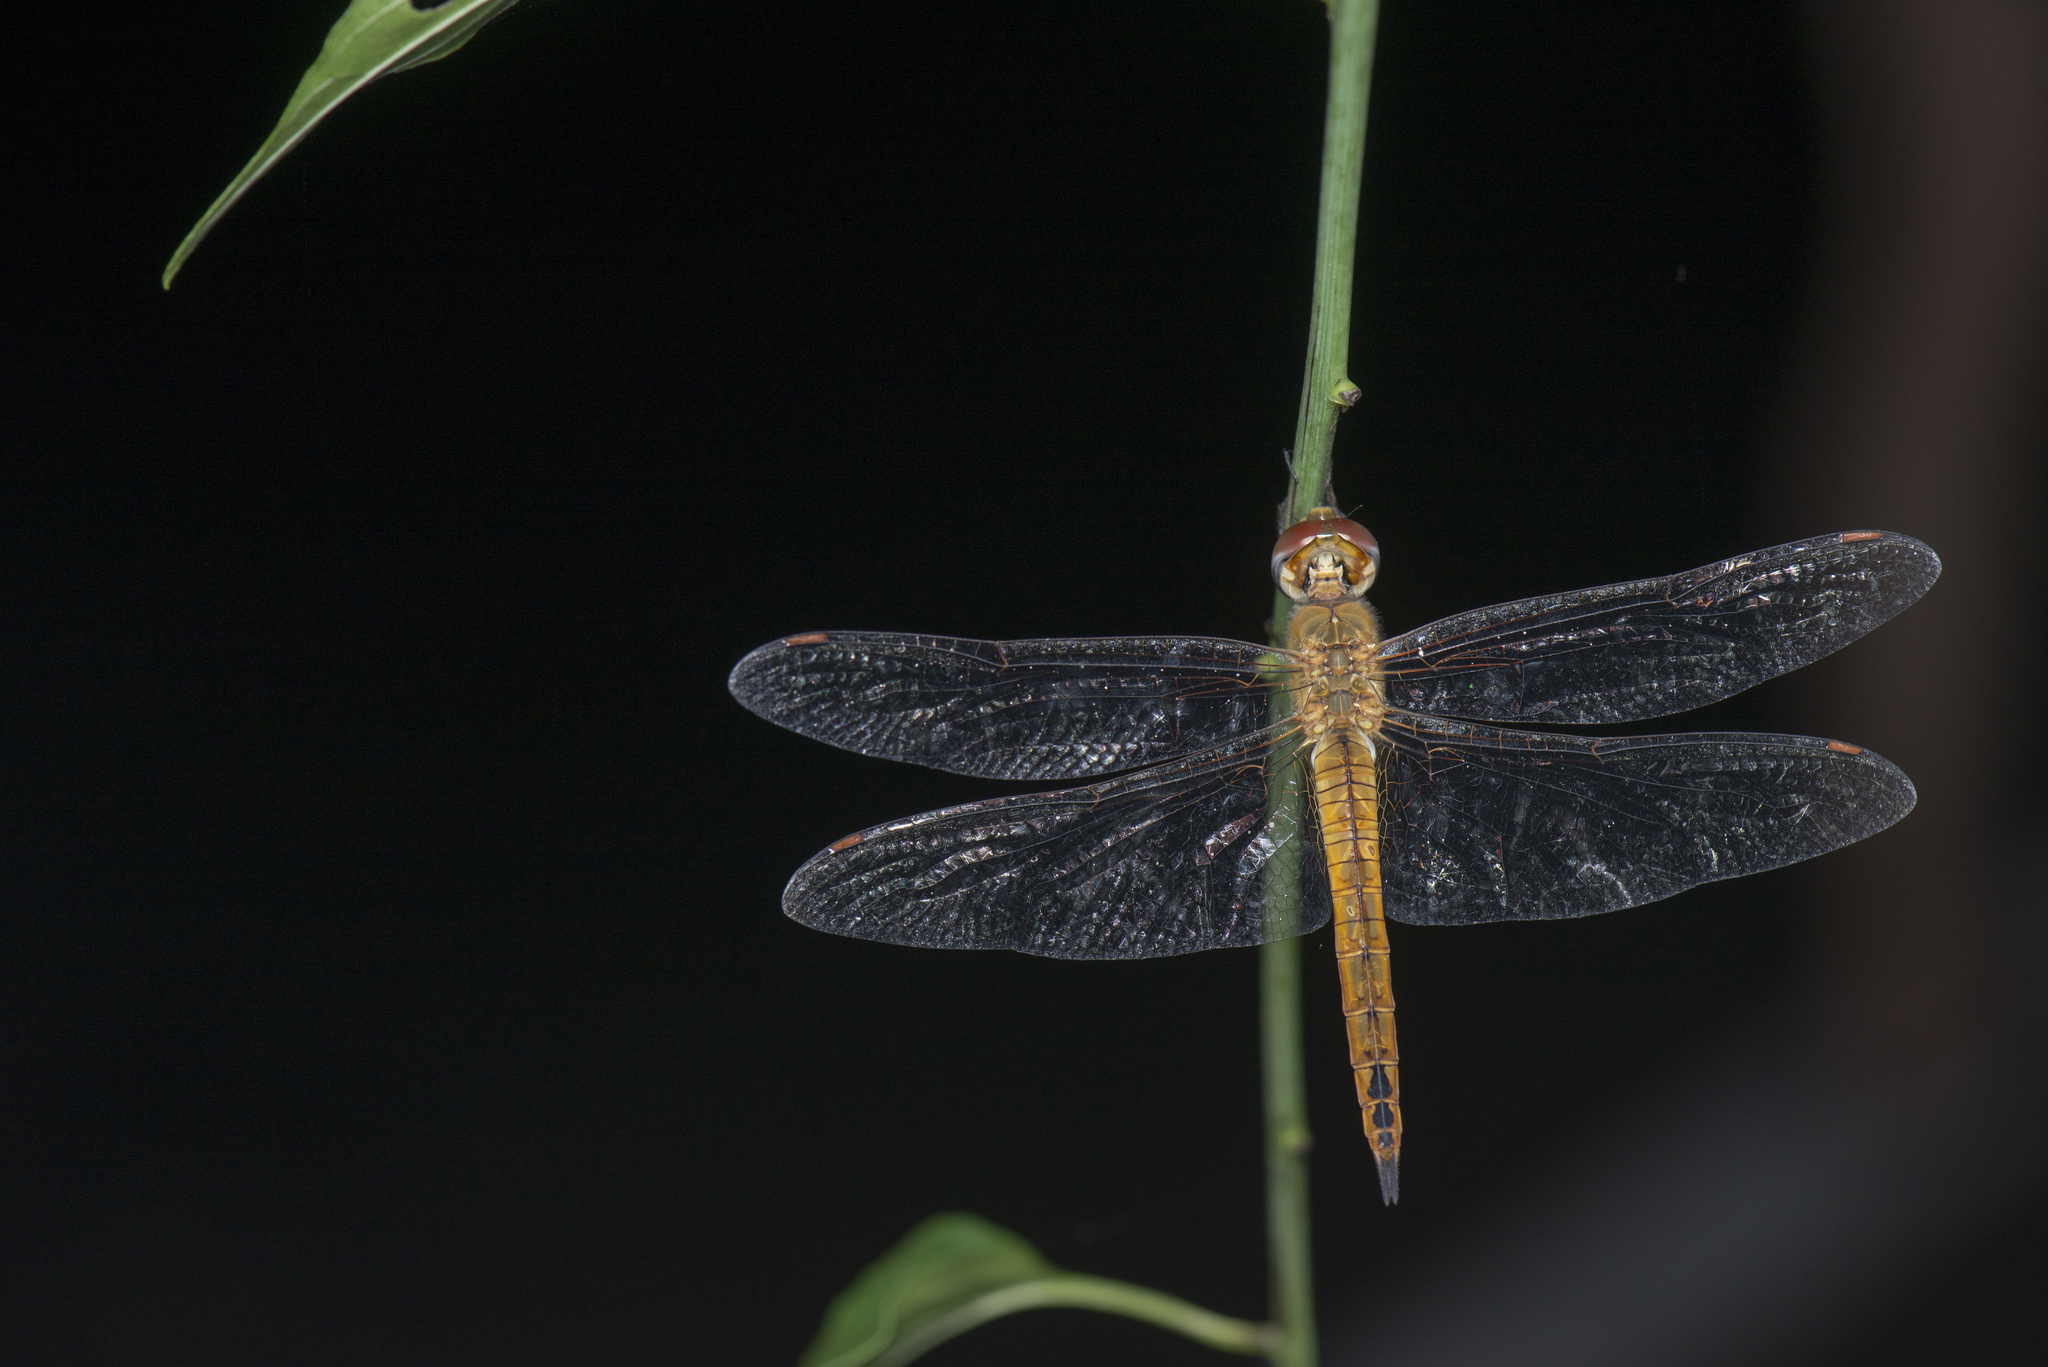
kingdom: Animalia
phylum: Arthropoda
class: Insecta
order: Odonata
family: Libellulidae
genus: Pantala
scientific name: Pantala flavescens
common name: Wandering glider
